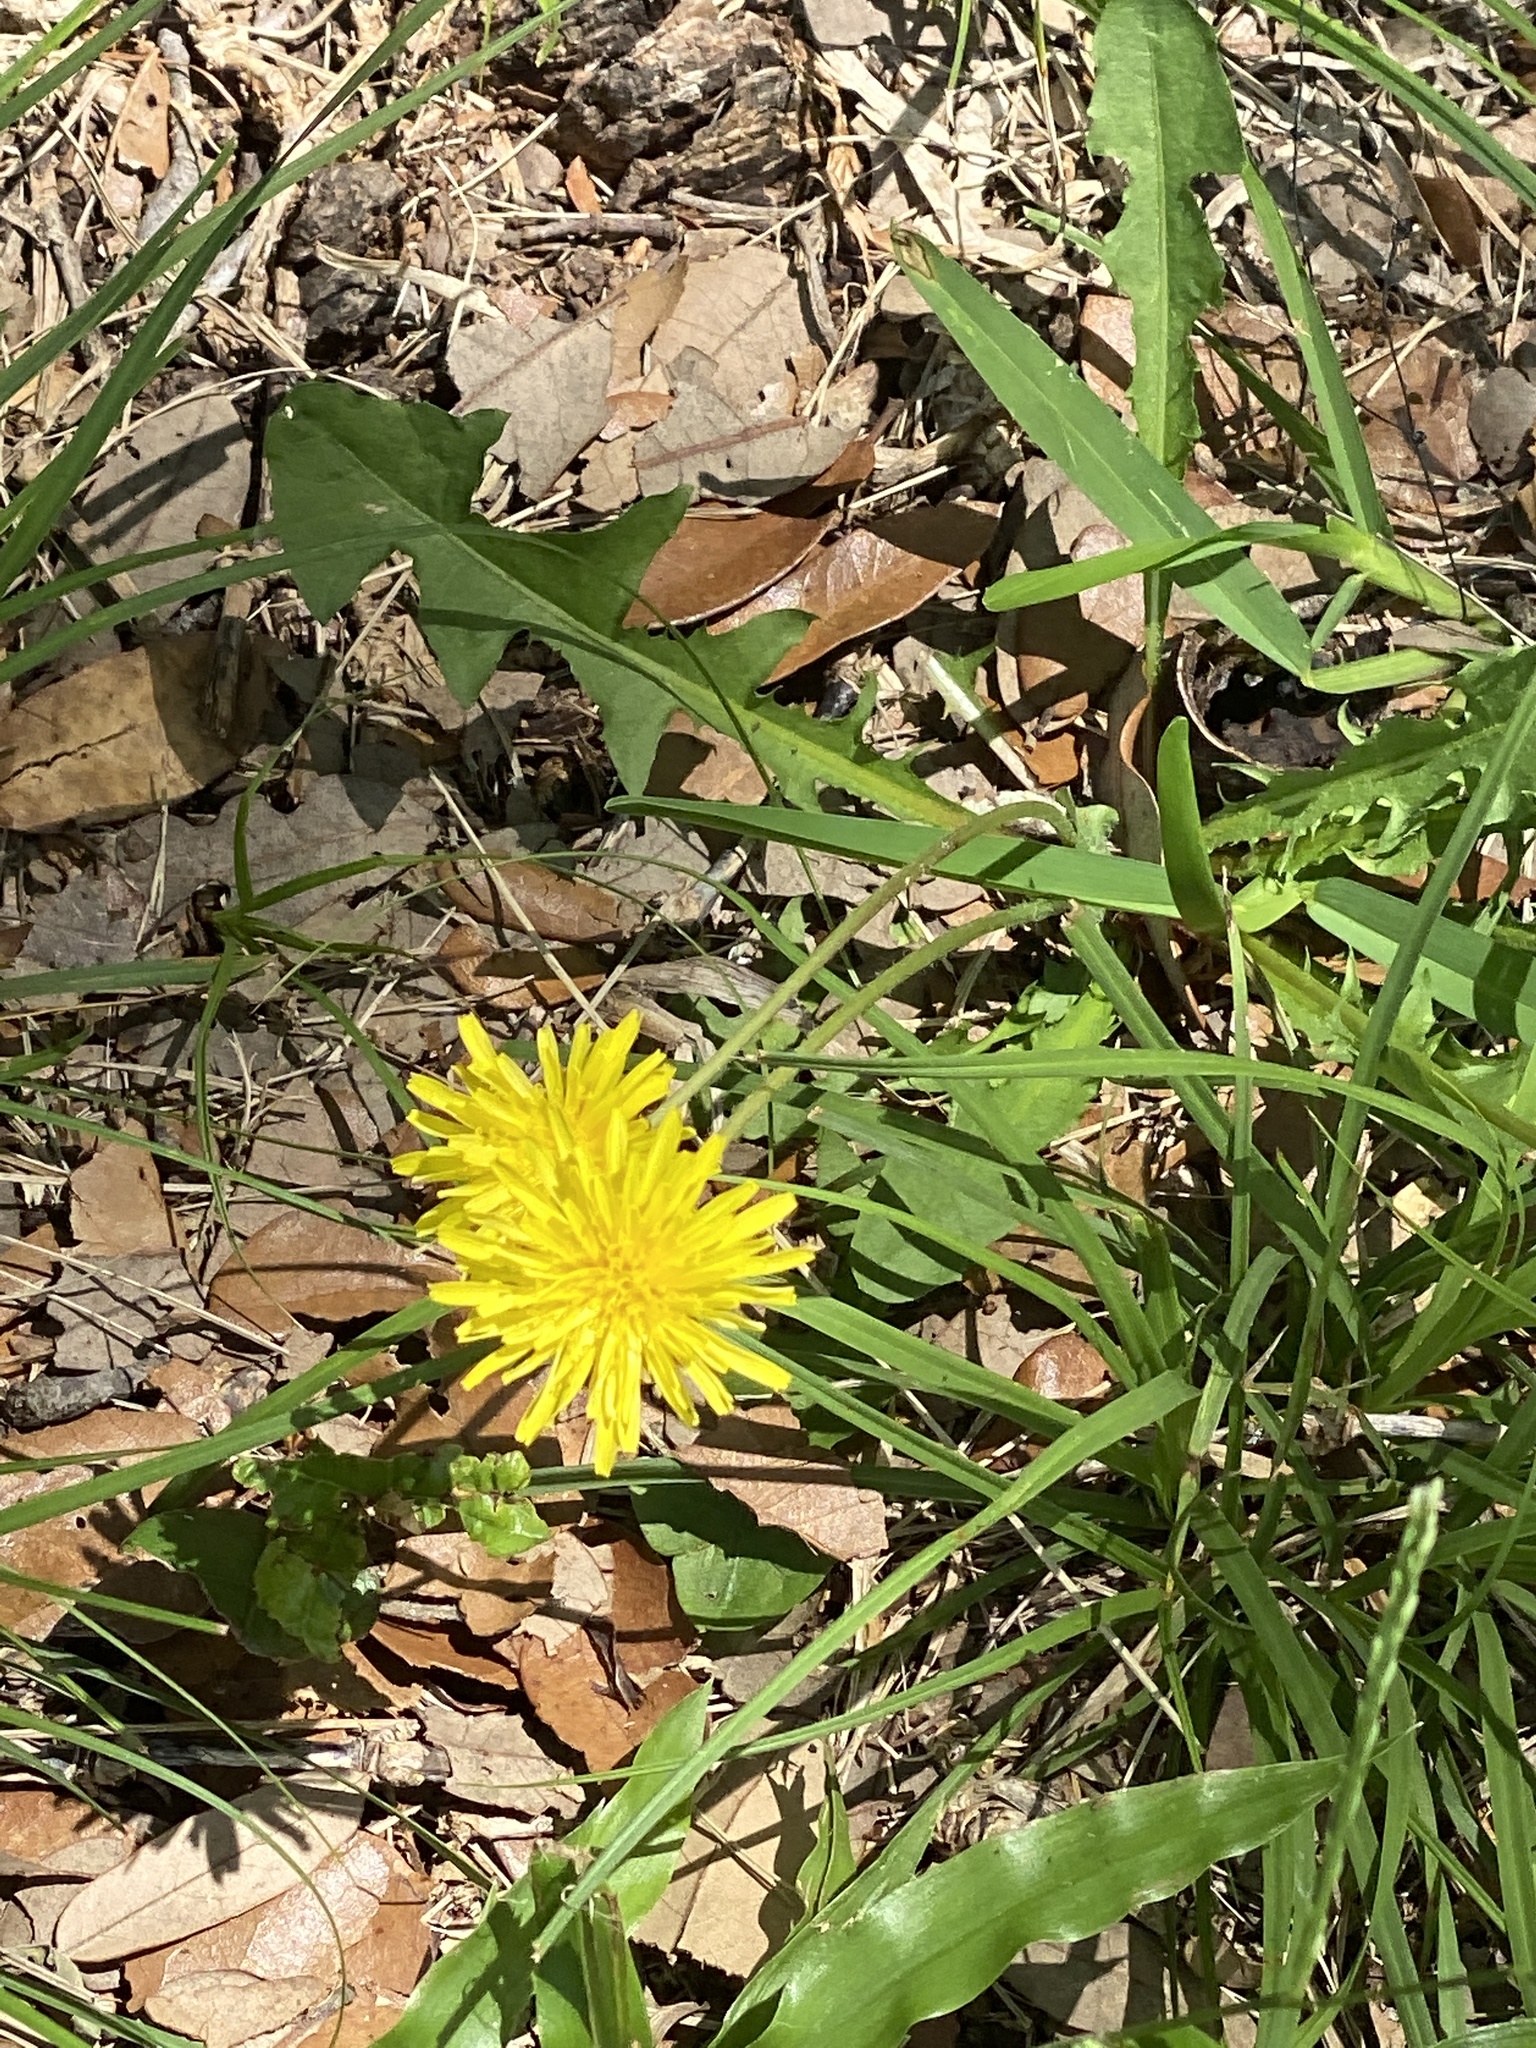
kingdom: Plantae
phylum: Tracheophyta
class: Magnoliopsida
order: Asterales
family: Asteraceae
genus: Taraxacum
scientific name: Taraxacum officinale
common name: Common dandelion
